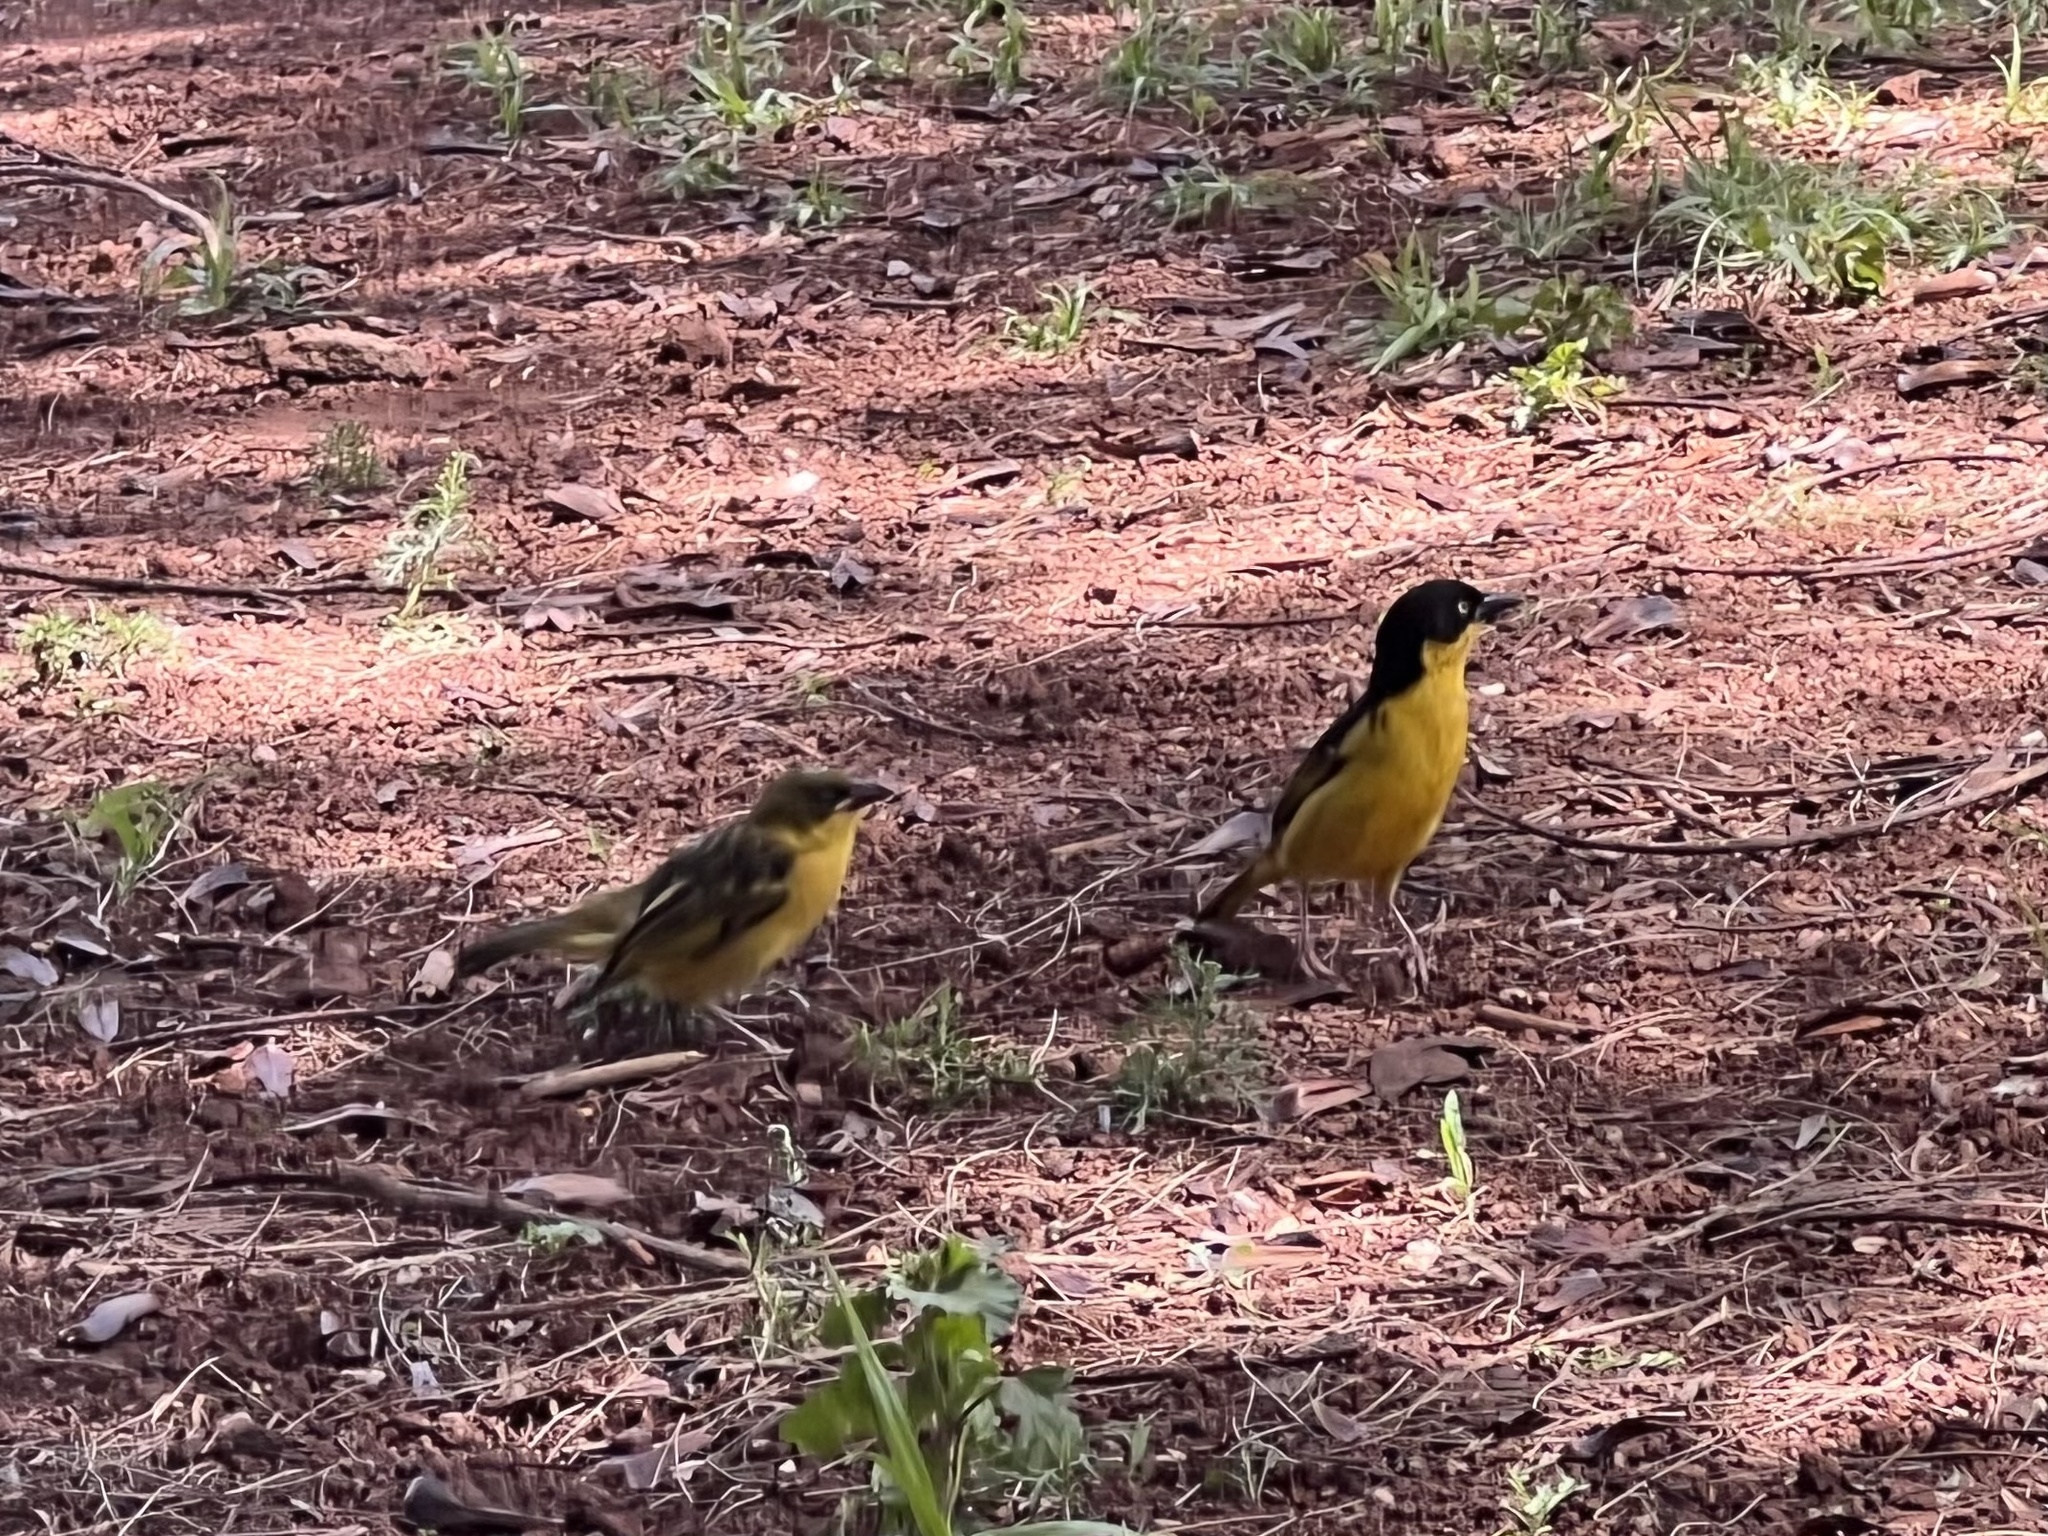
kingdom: Animalia
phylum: Chordata
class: Aves
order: Passeriformes
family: Ploceidae
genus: Ploceus
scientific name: Ploceus baglafecht
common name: Baglafecht weaver
